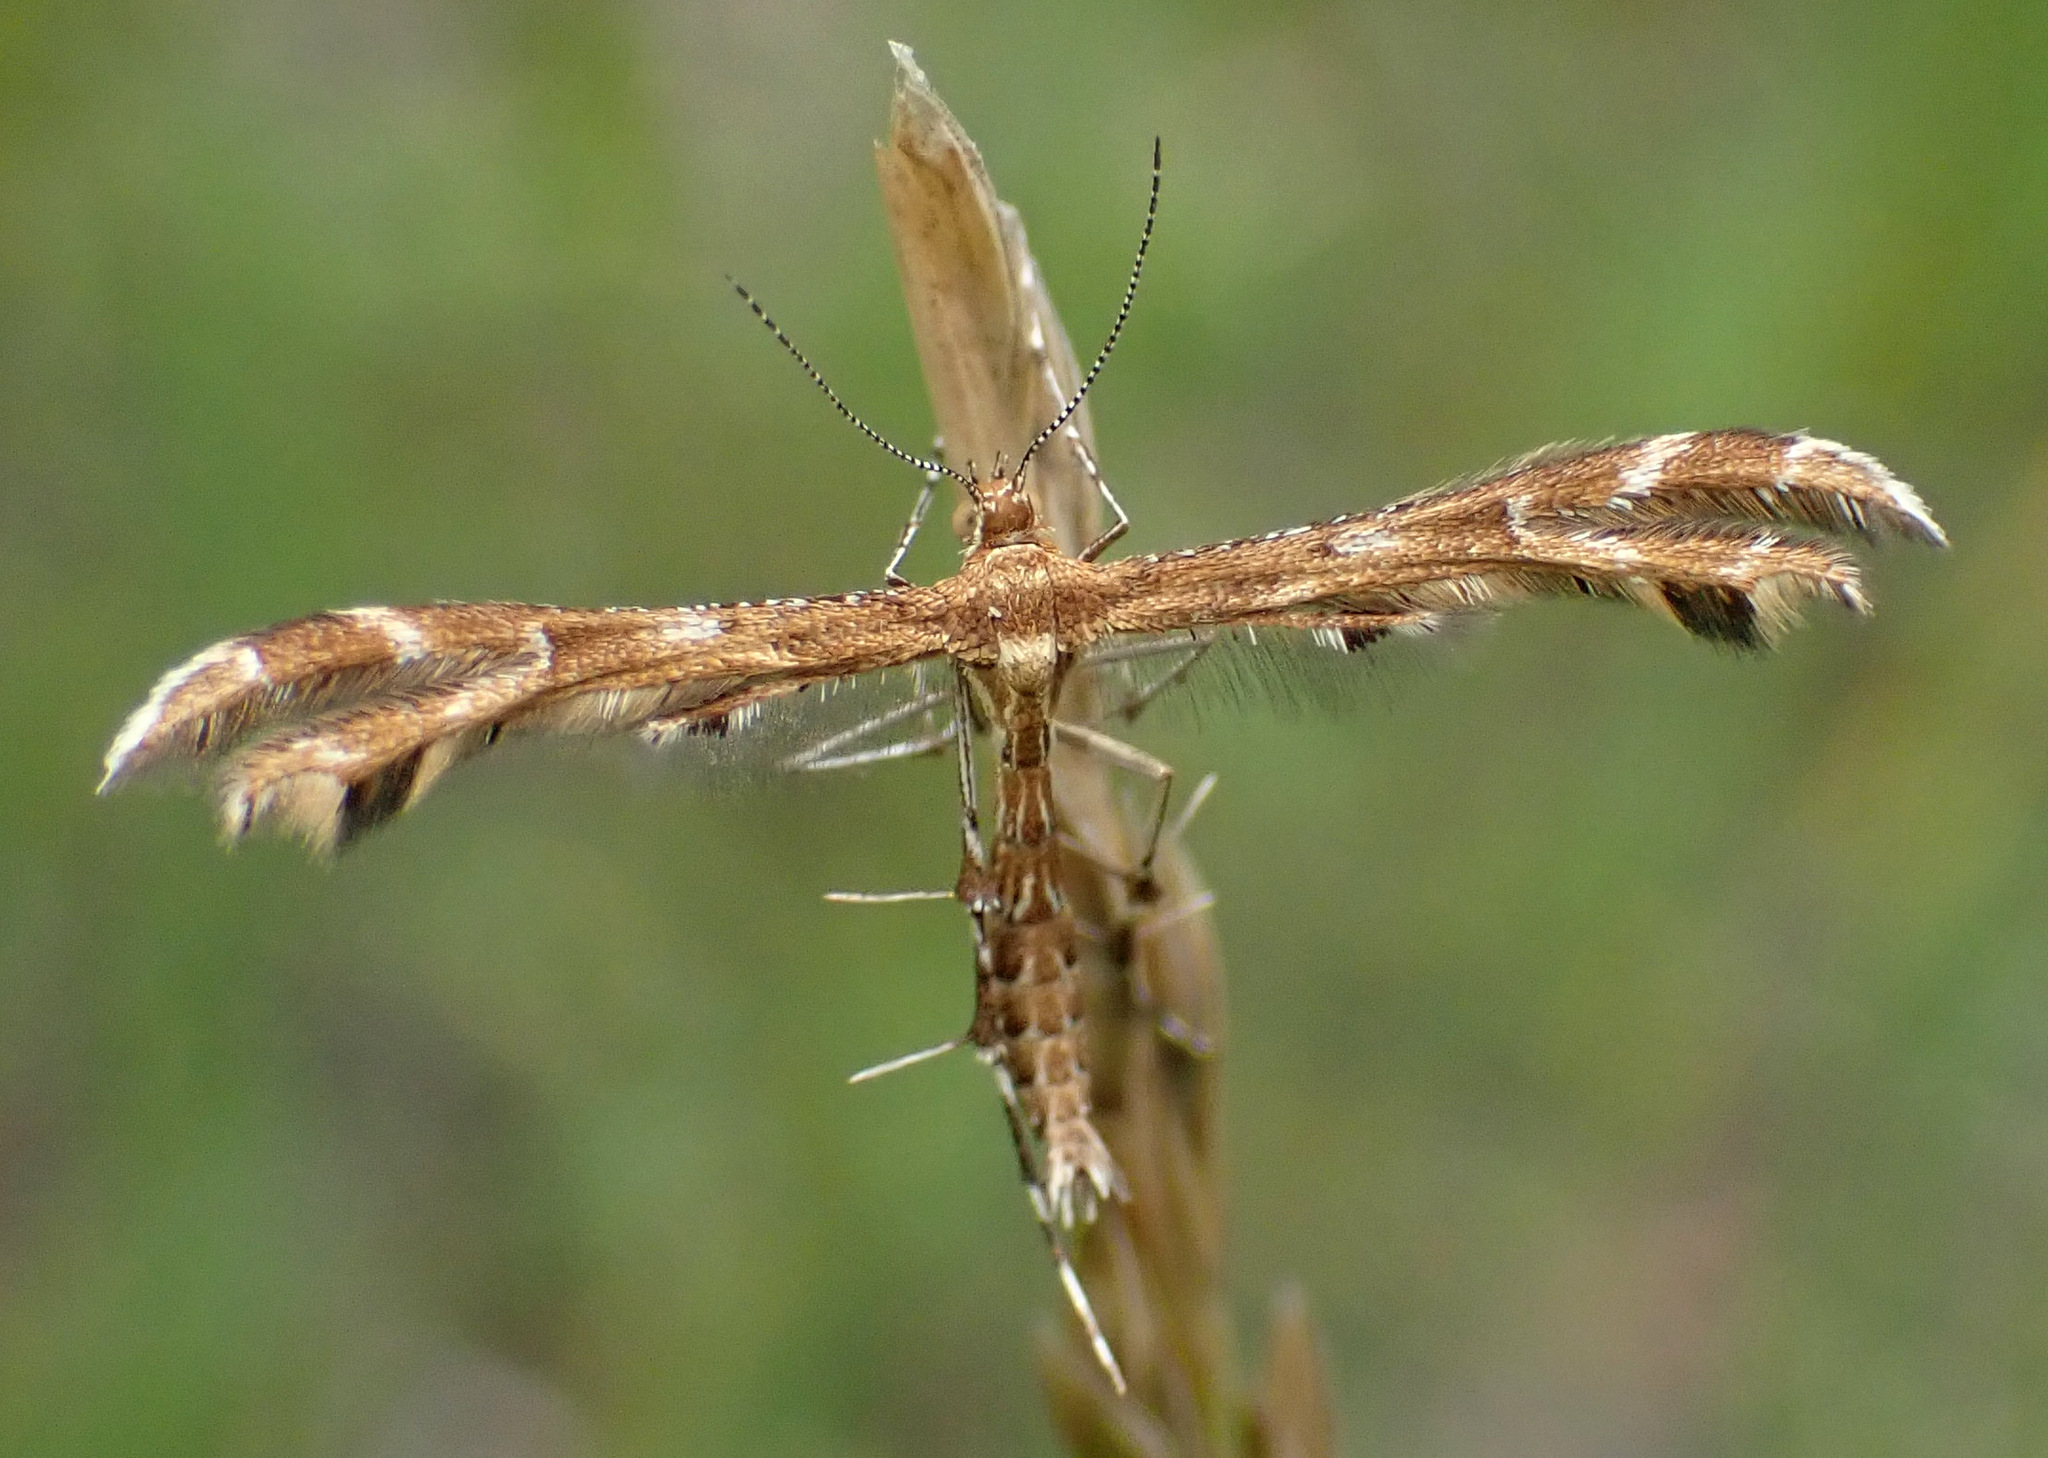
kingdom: Animalia
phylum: Arthropoda
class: Insecta
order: Lepidoptera
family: Pterophoridae
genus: Crombrugghia
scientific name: Crombrugghia distans
